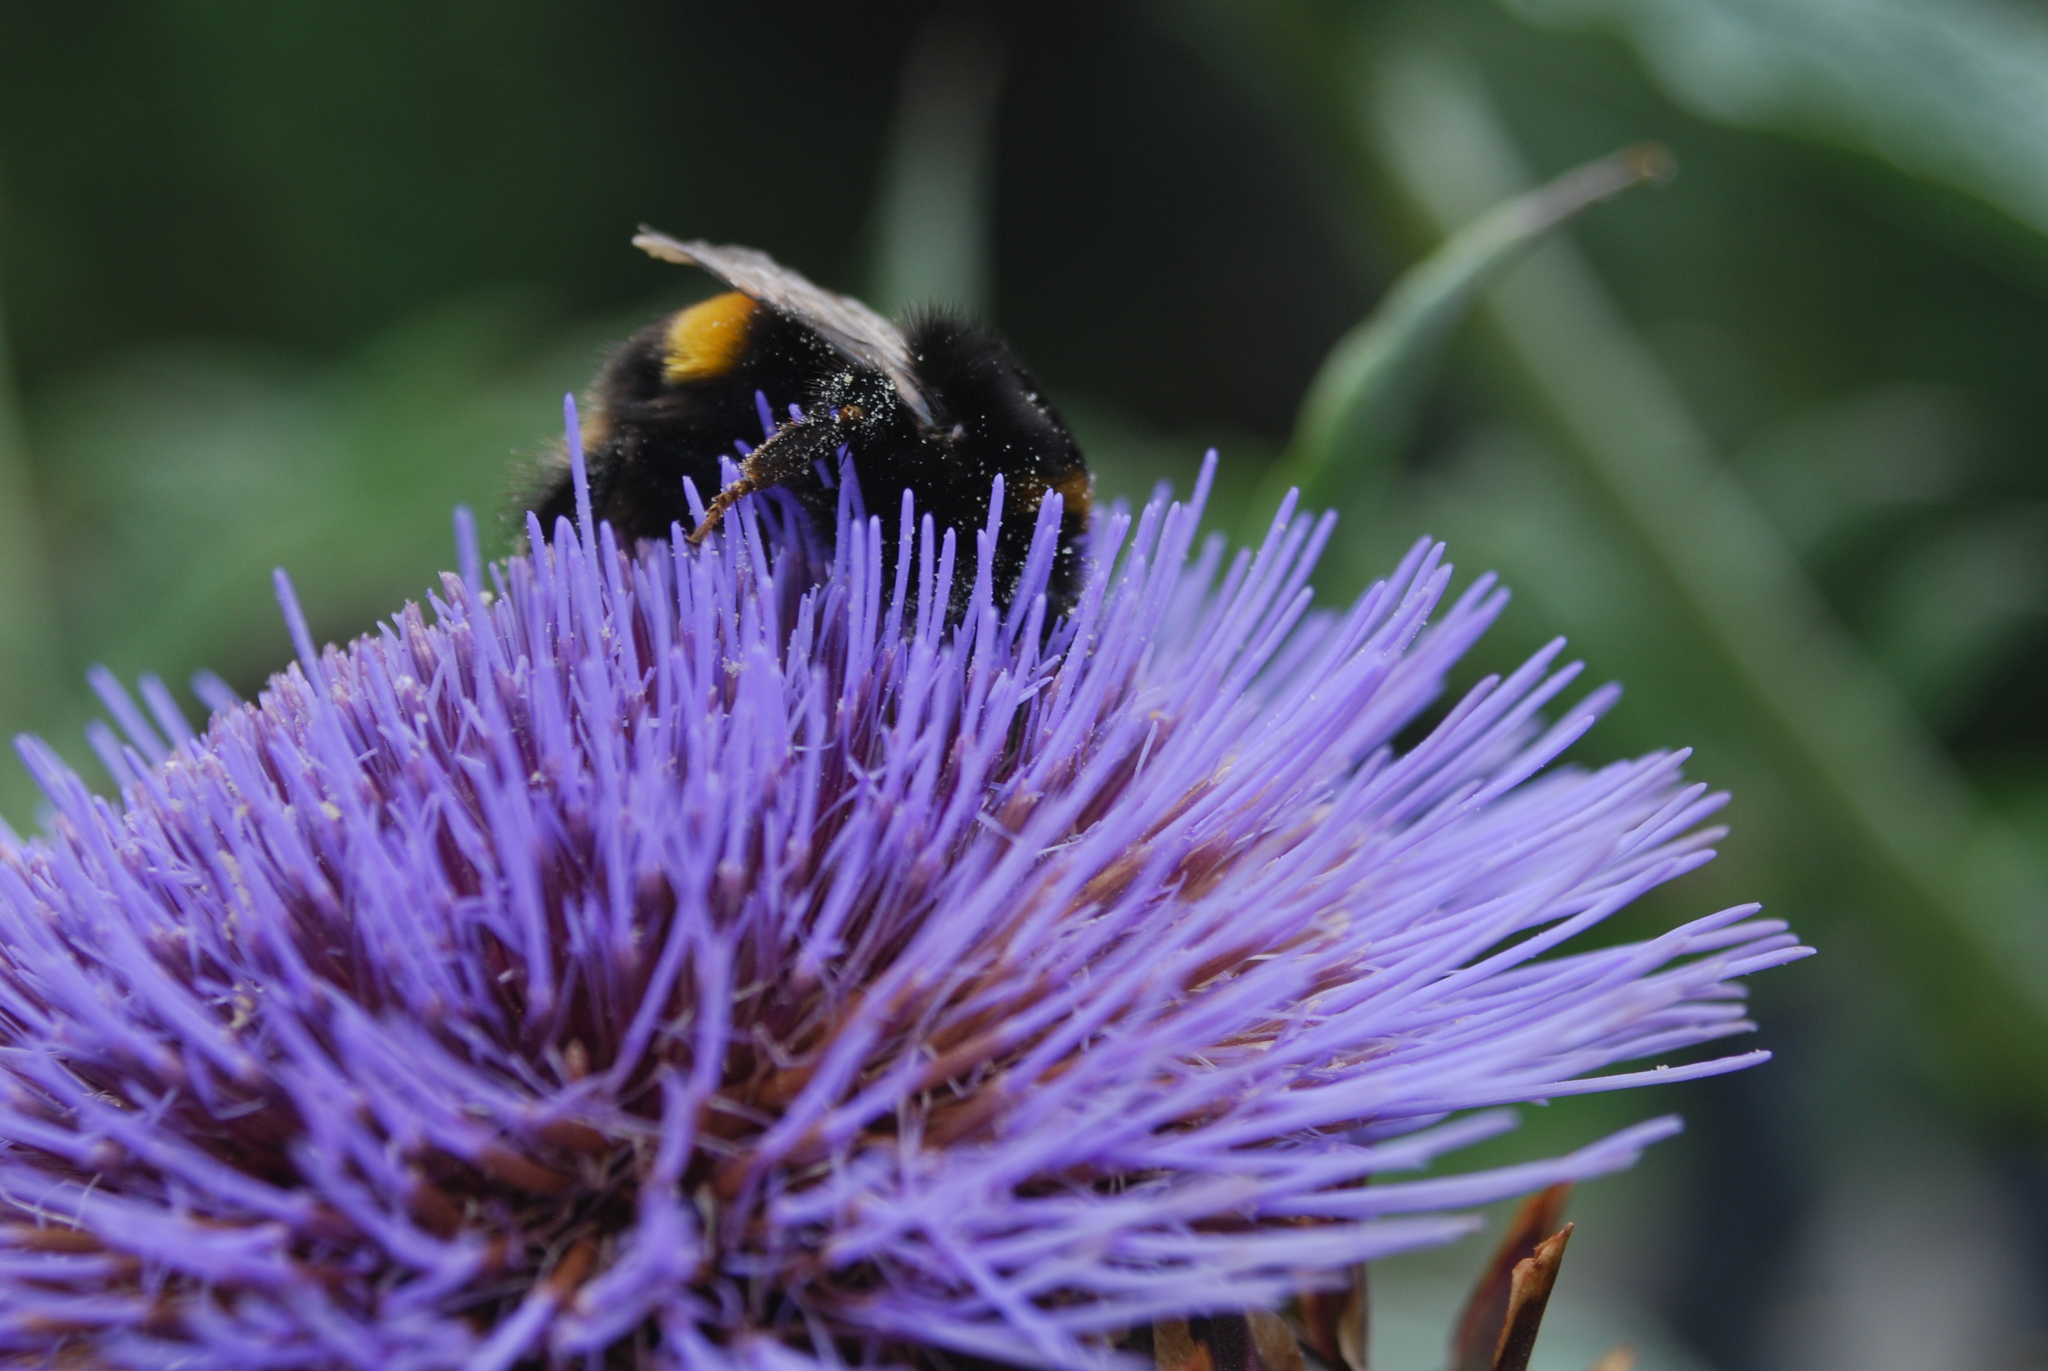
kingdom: Animalia
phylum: Arthropoda
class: Insecta
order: Hymenoptera
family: Apidae
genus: Bombus
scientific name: Bombus terrestris
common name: Buff-tailed bumblebee
